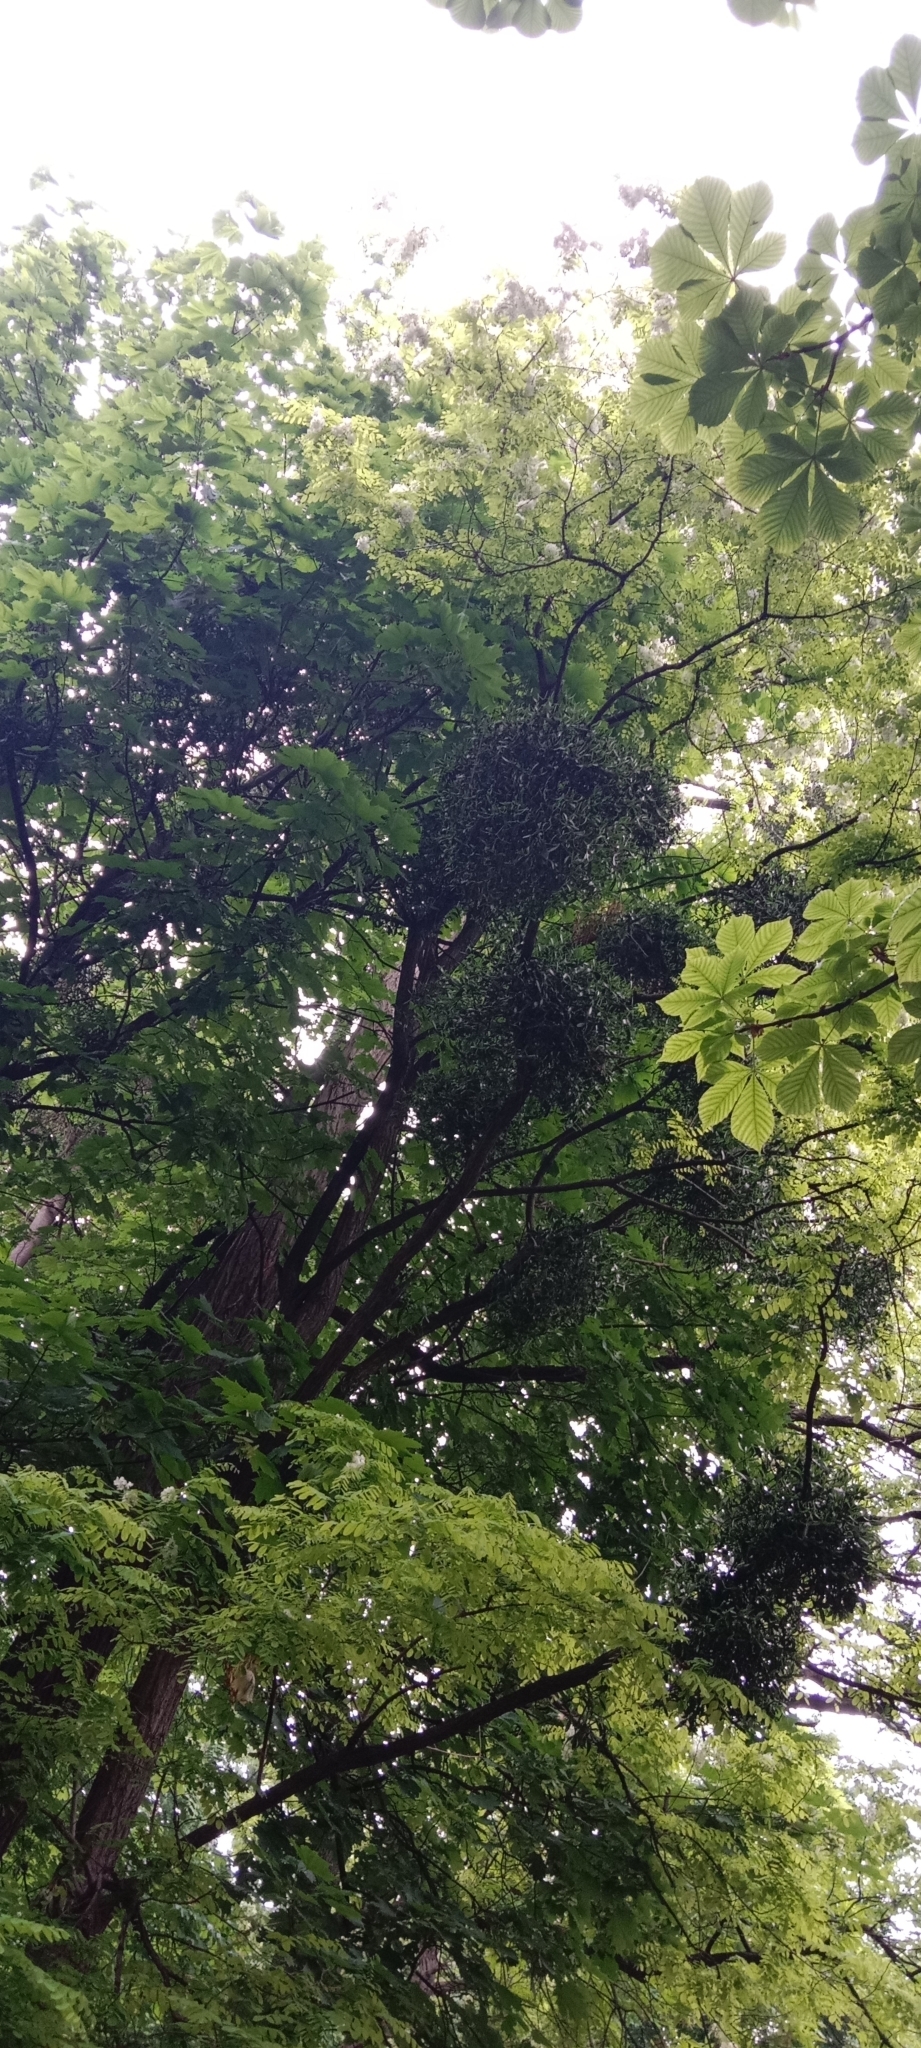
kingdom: Plantae
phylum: Tracheophyta
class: Magnoliopsida
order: Santalales
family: Viscaceae
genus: Viscum
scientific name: Viscum album
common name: Mistletoe
